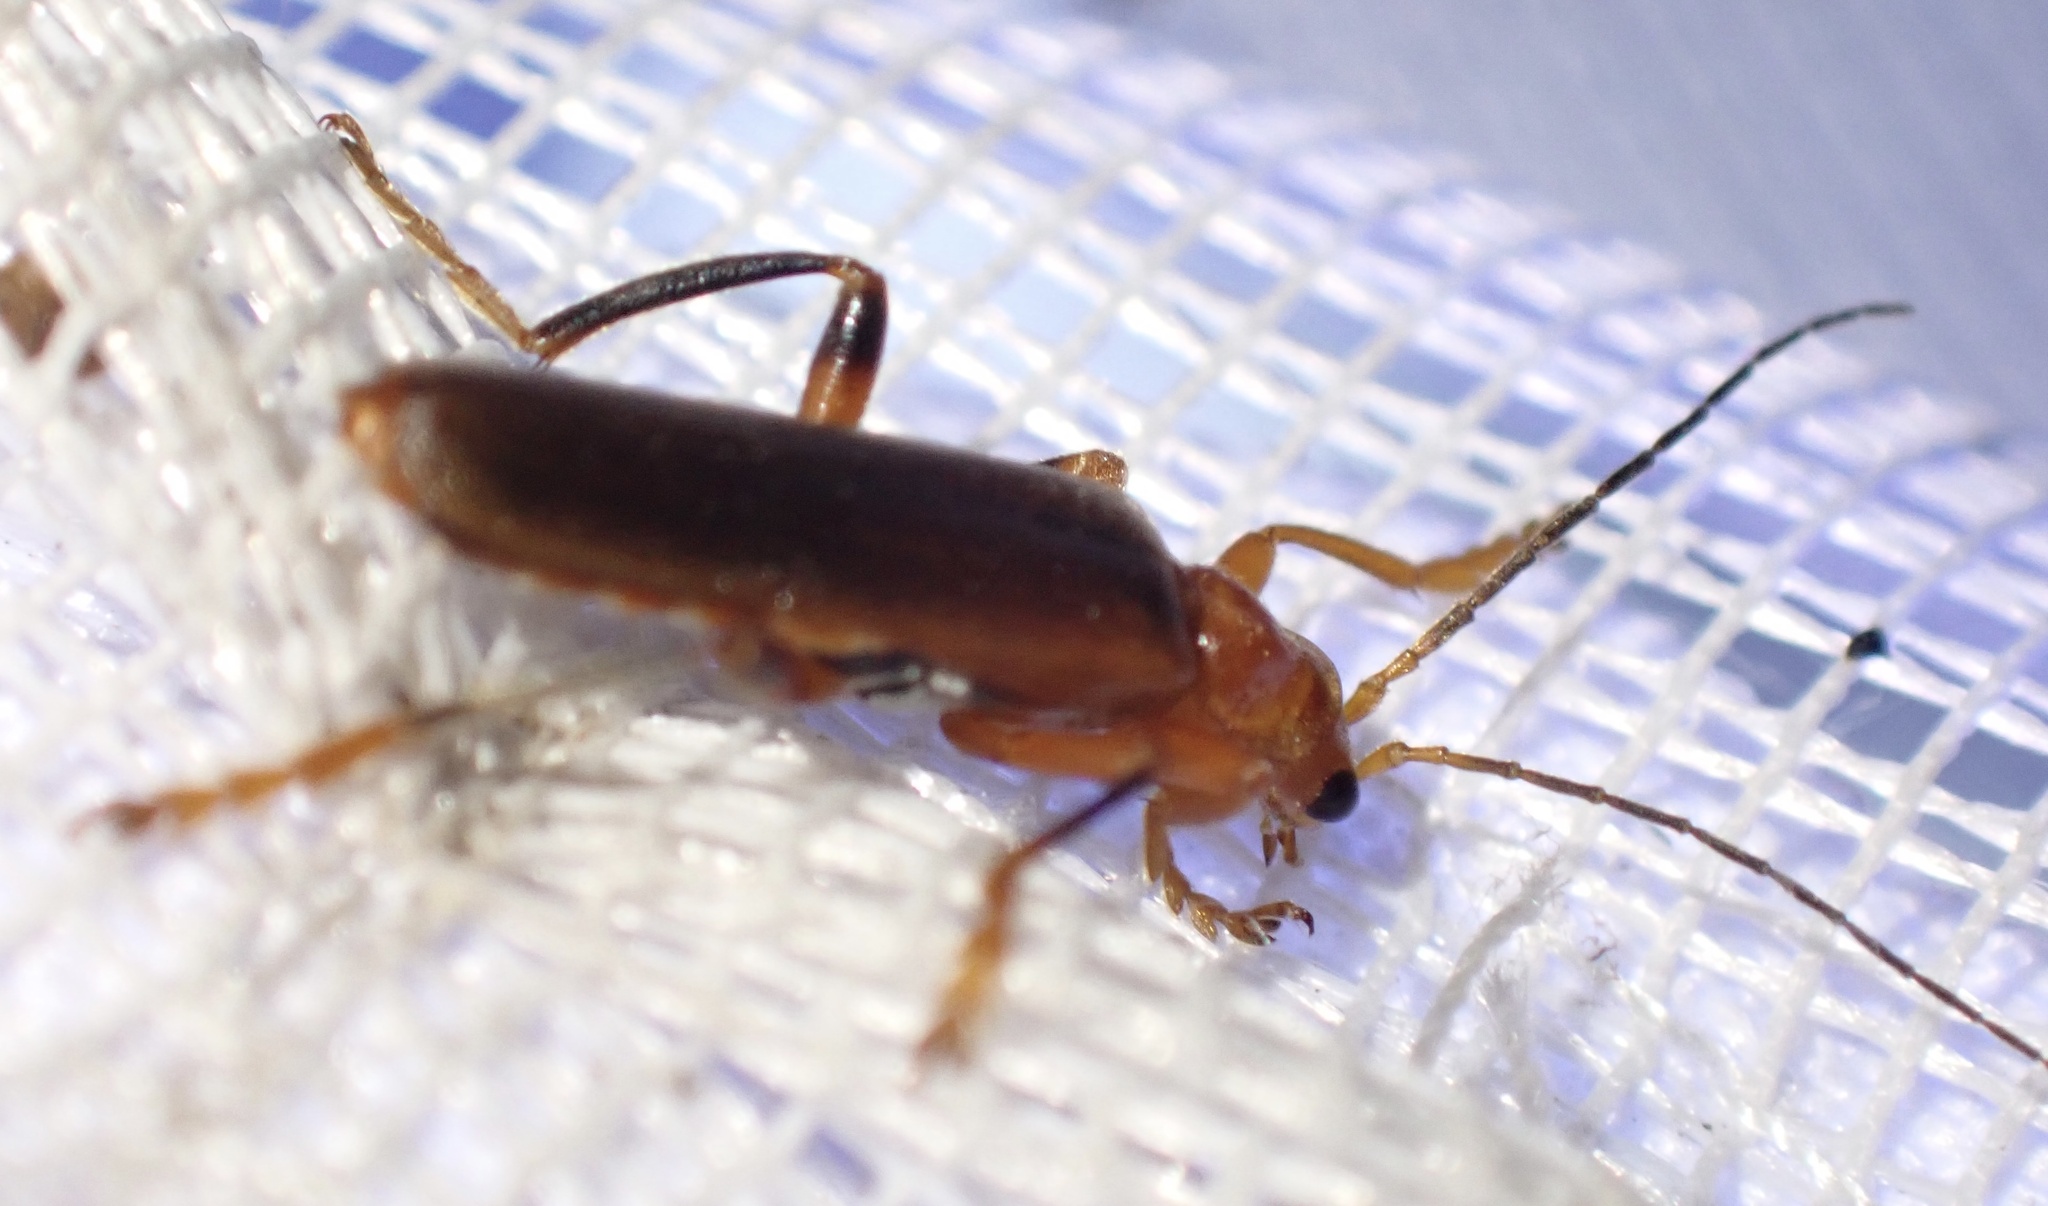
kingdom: Animalia
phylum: Arthropoda
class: Insecta
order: Coleoptera
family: Cantharidae
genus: Cantharis
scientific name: Cantharis livida
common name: Livid soldier beetle
